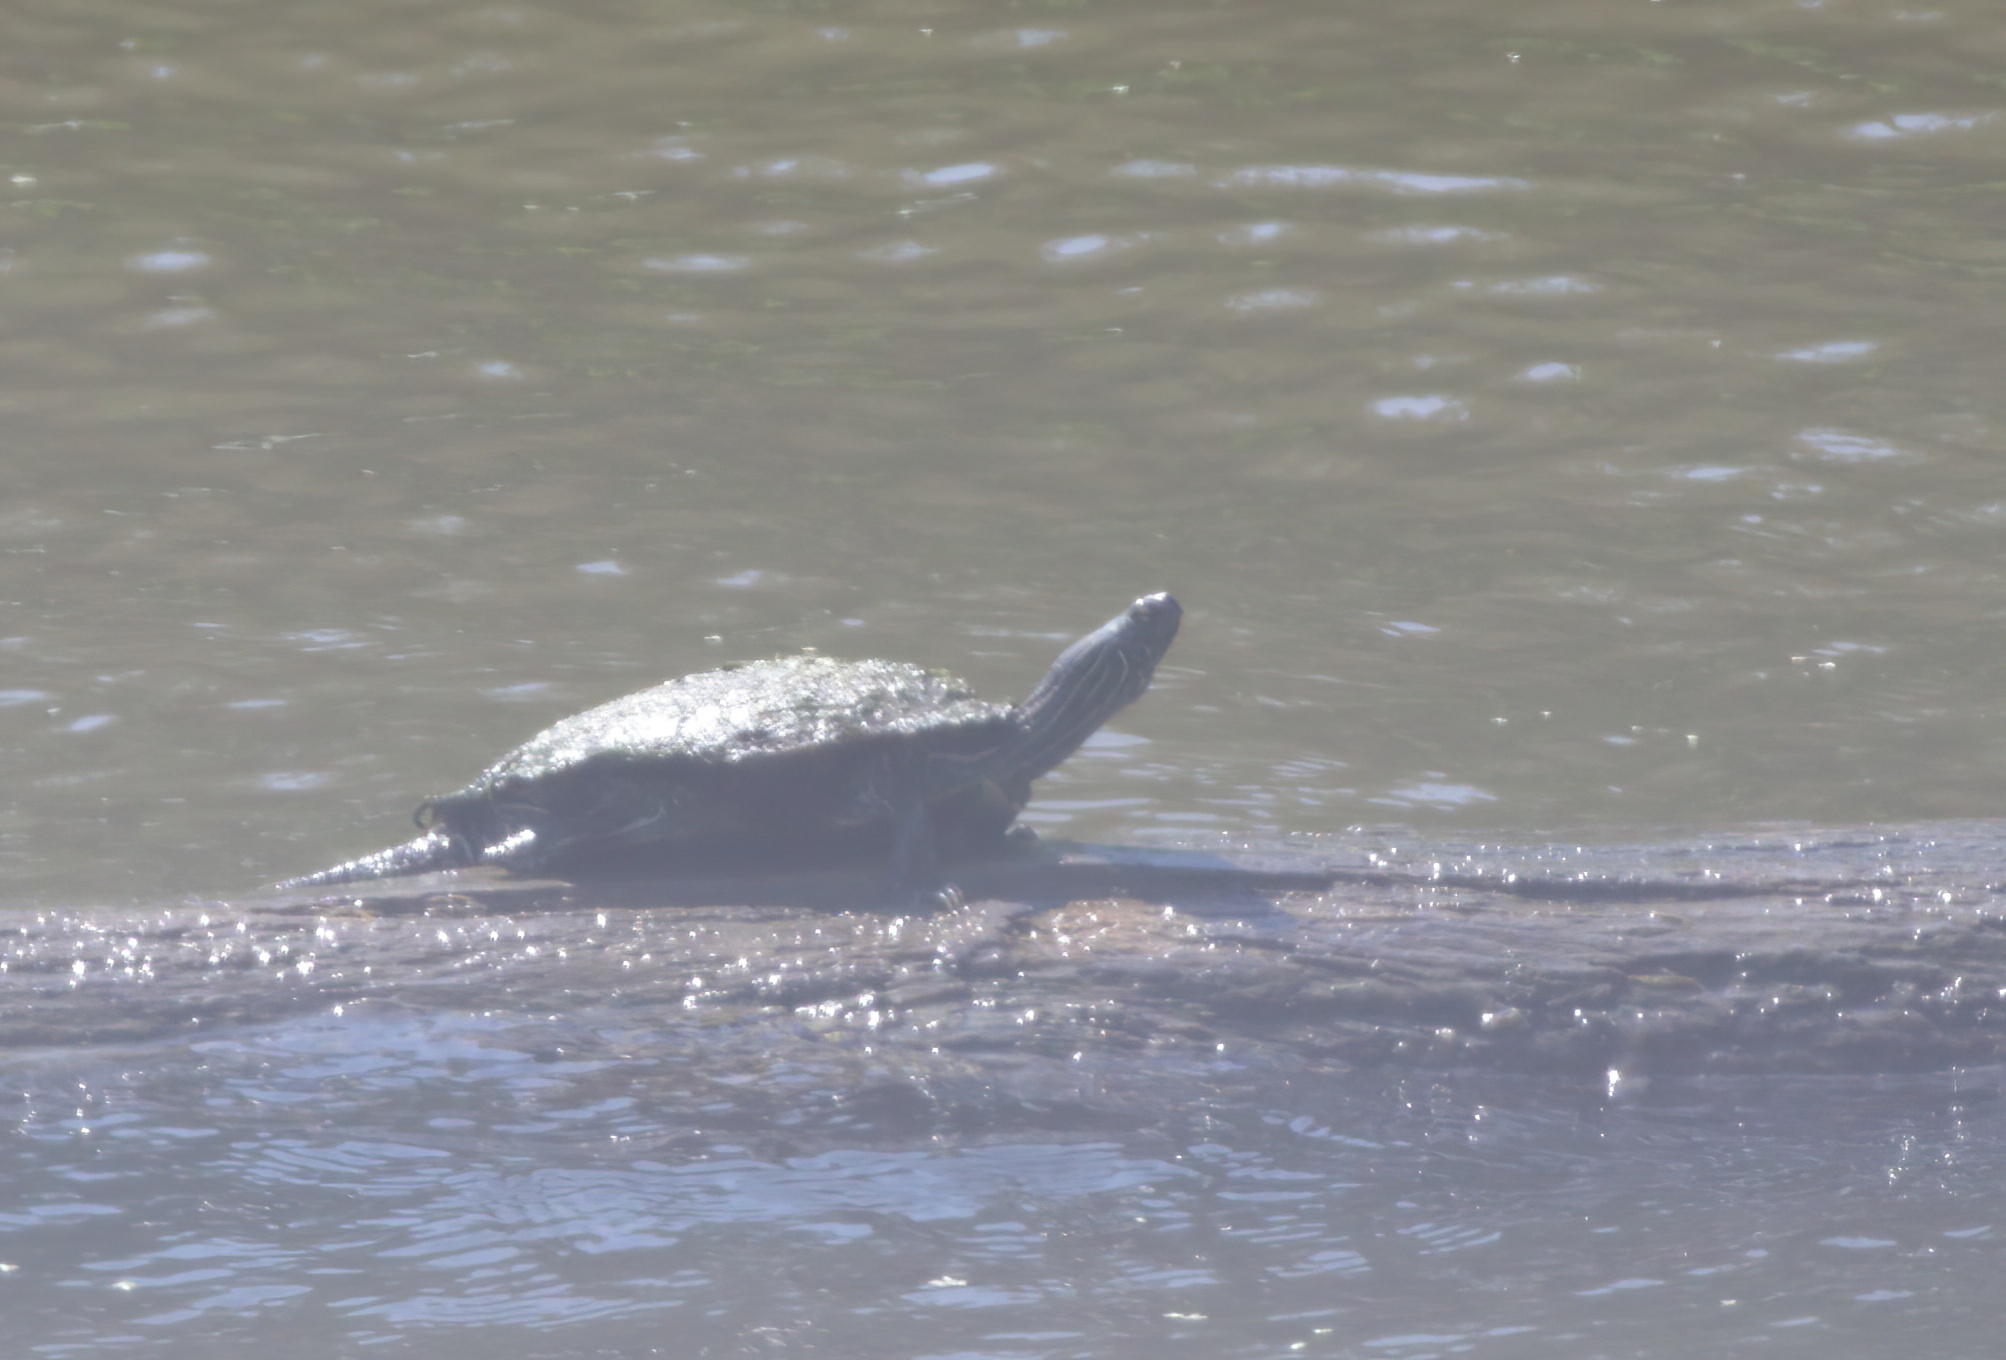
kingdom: Animalia
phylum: Chordata
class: Testudines
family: Emydidae
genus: Graptemys
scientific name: Graptemys geographica
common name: Common map turtle
